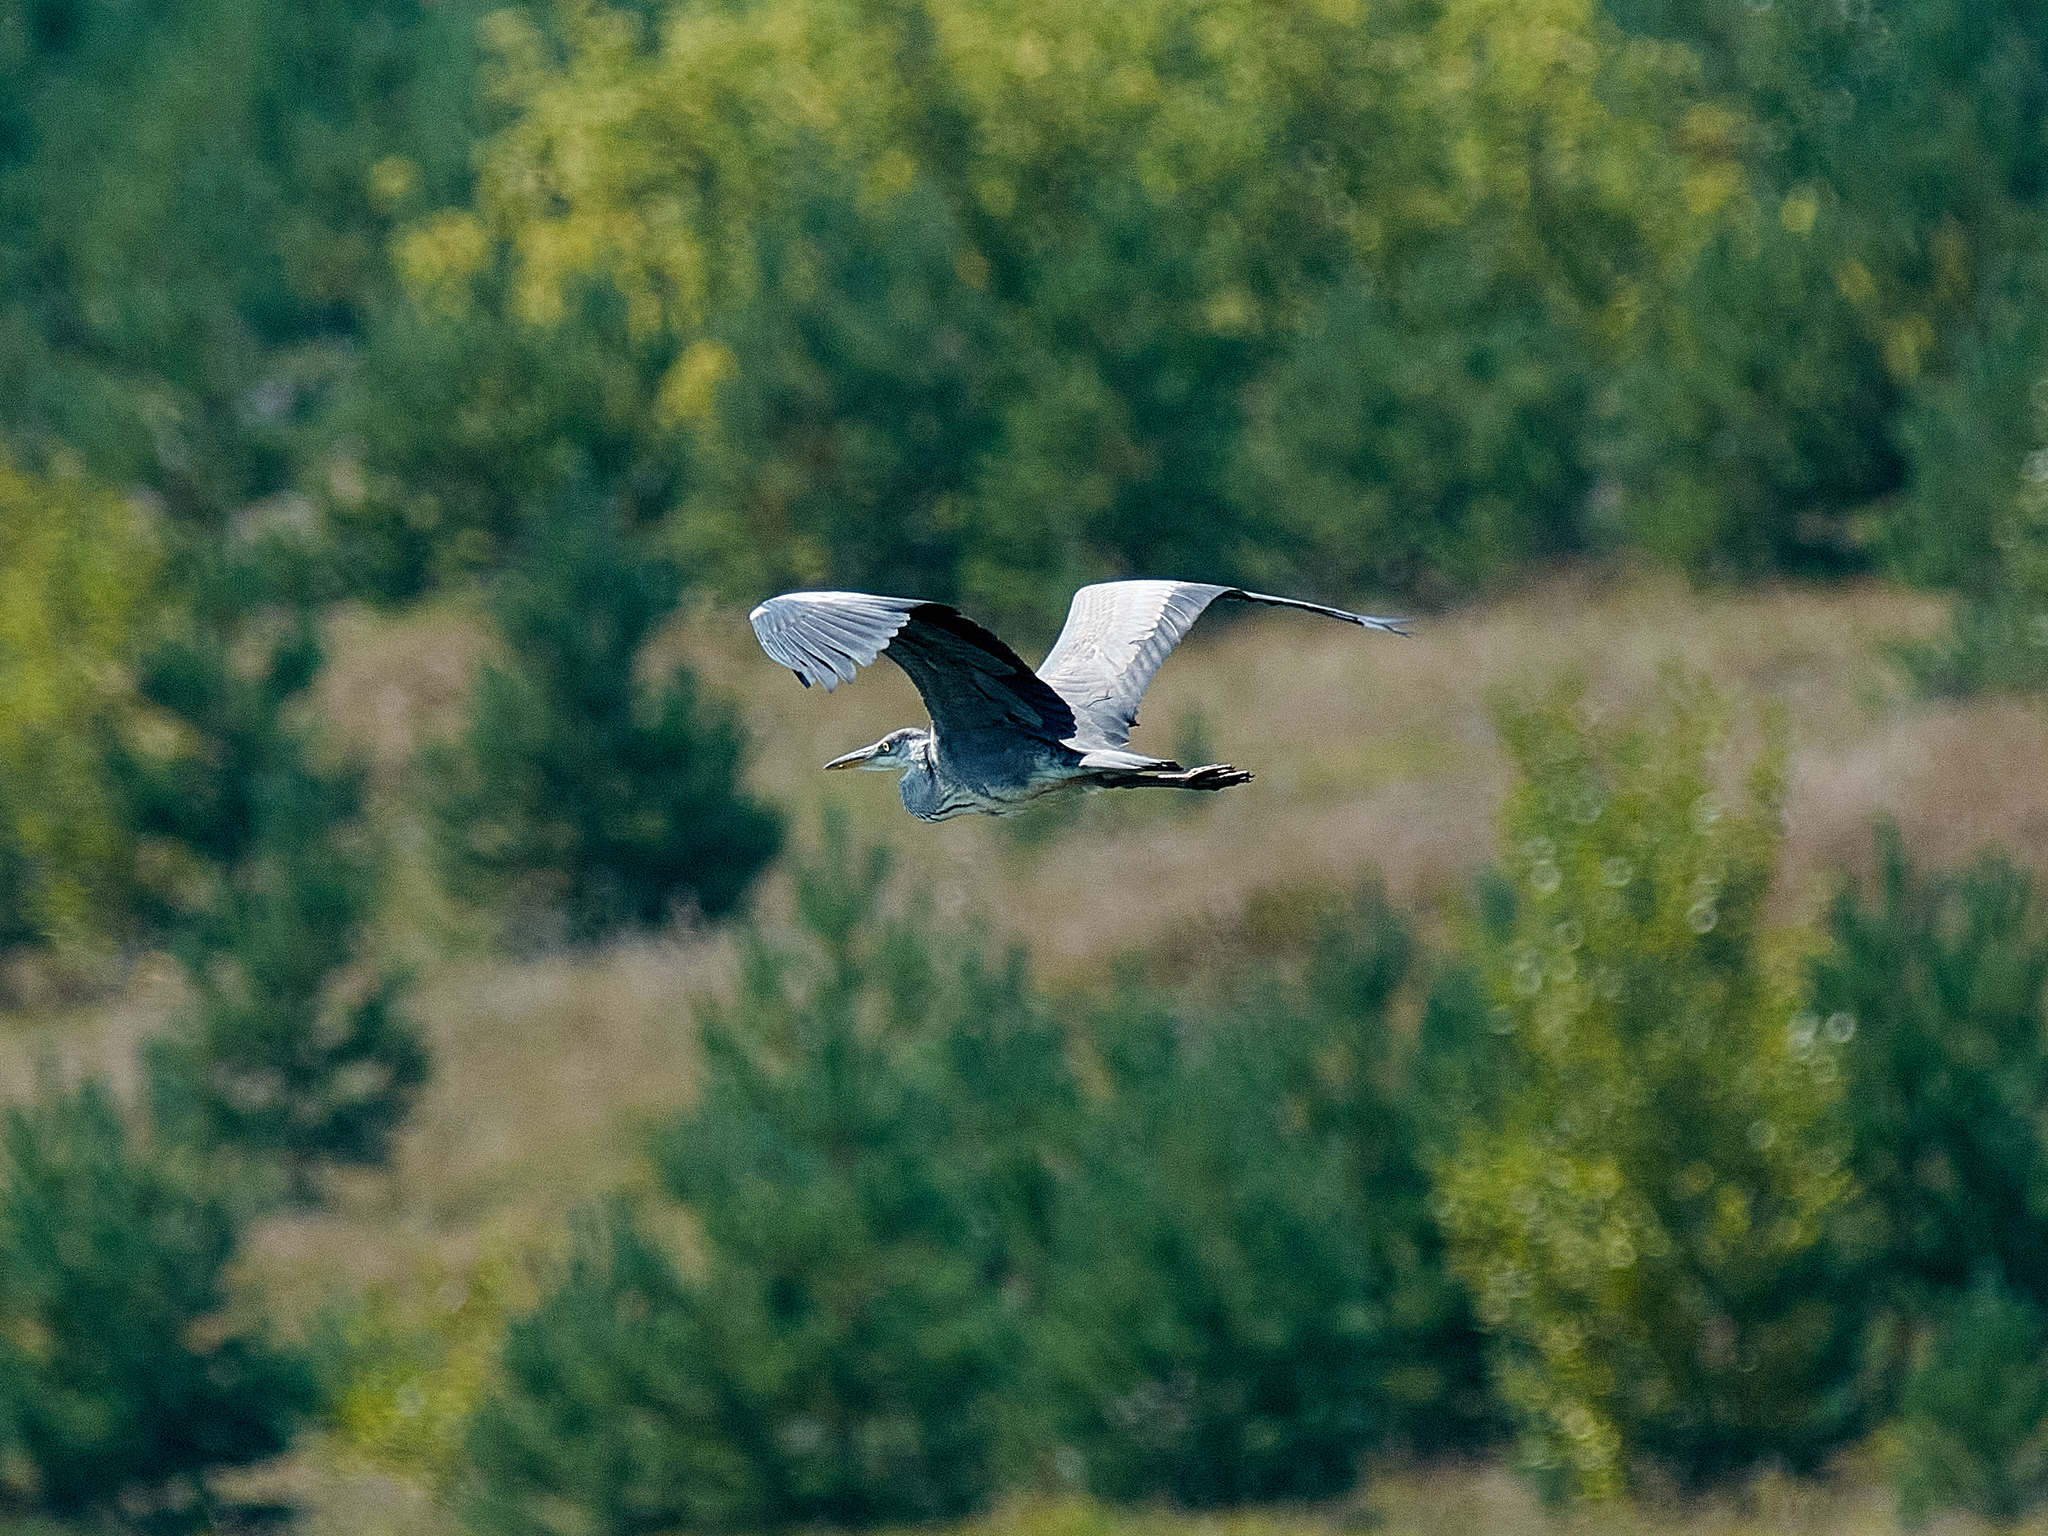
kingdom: Animalia
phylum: Chordata
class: Aves
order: Pelecaniformes
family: Ardeidae
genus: Ardea
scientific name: Ardea cinerea
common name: Grey heron
